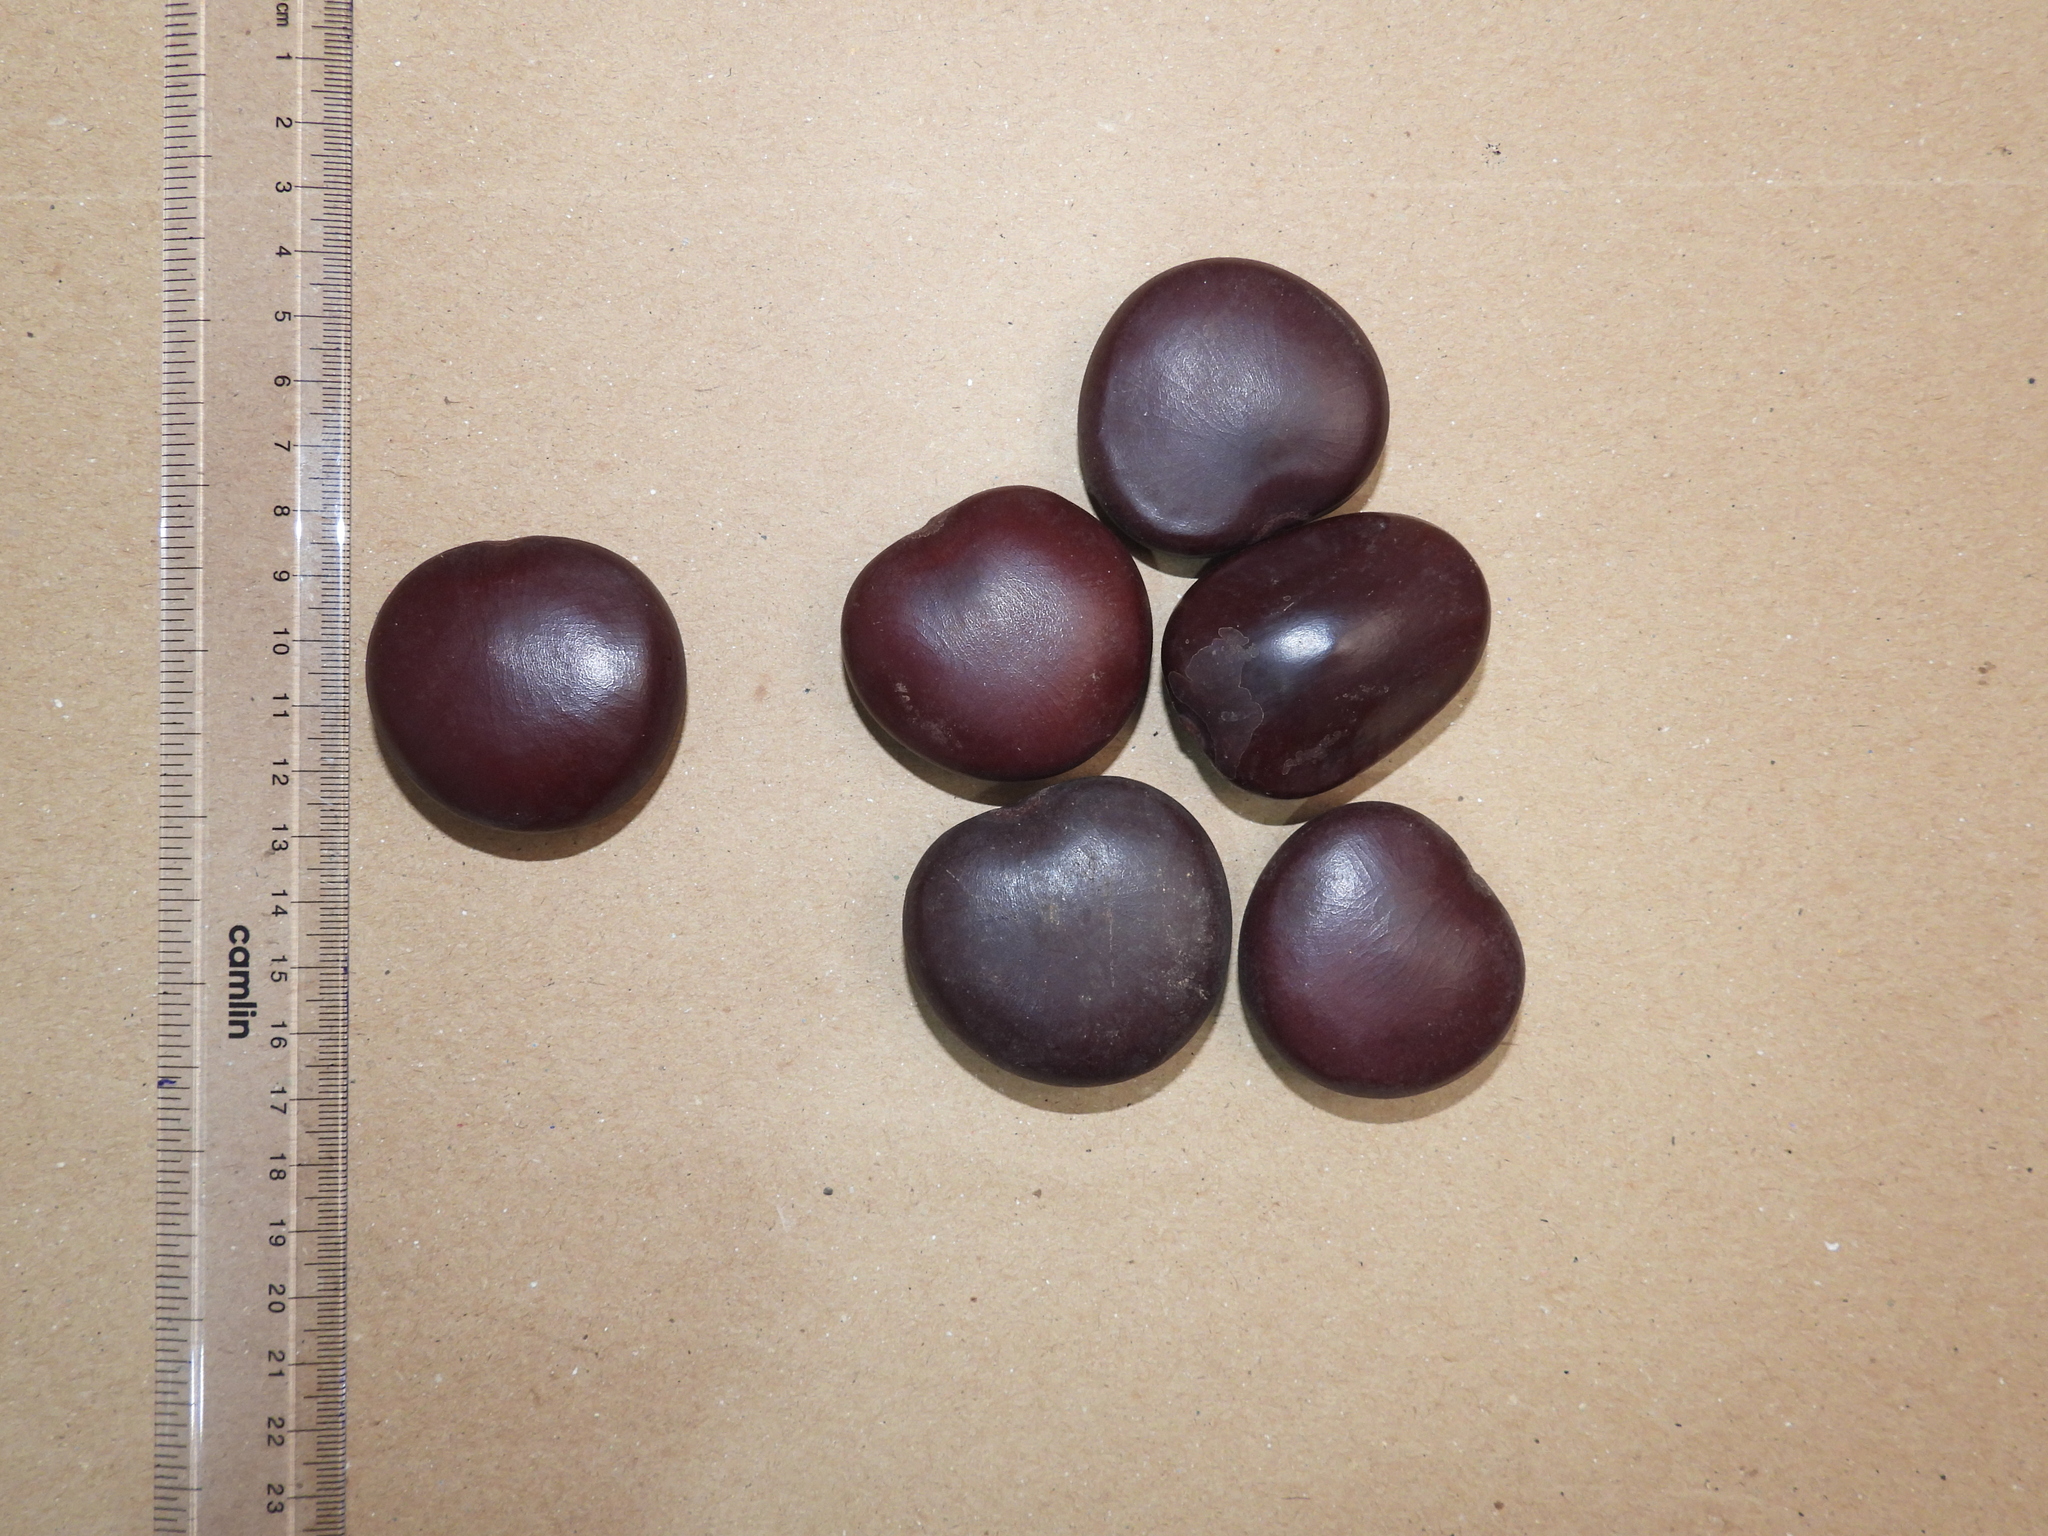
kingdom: Plantae
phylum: Tracheophyta
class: Magnoliopsida
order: Fabales
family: Fabaceae
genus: Entada
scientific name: Entada rheedei
